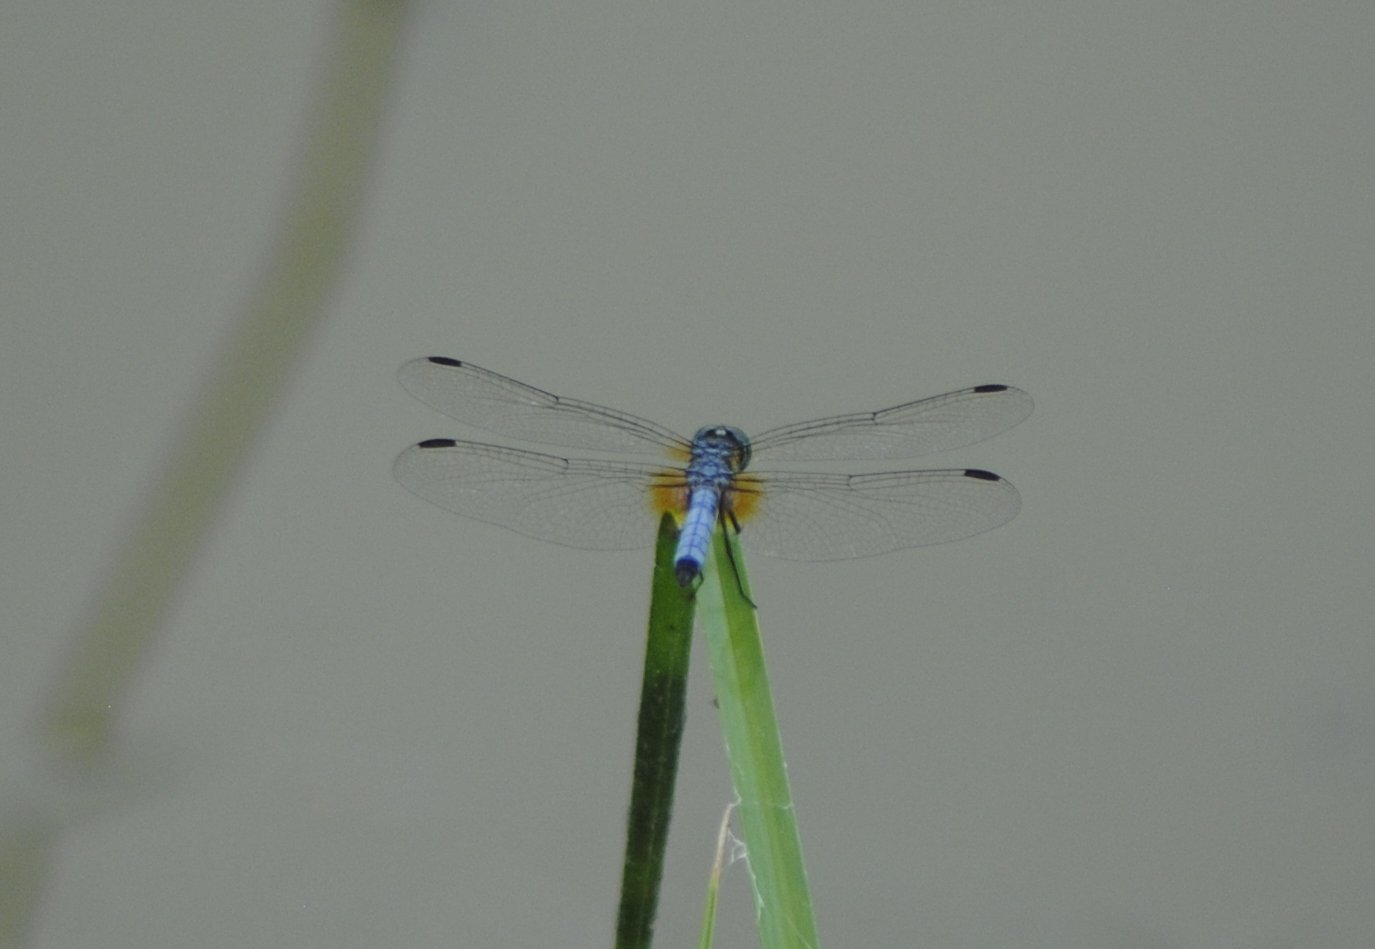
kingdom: Animalia
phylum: Arthropoda
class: Insecta
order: Odonata
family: Libellulidae
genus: Pachydiplax
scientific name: Pachydiplax longipennis
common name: Blue dasher
